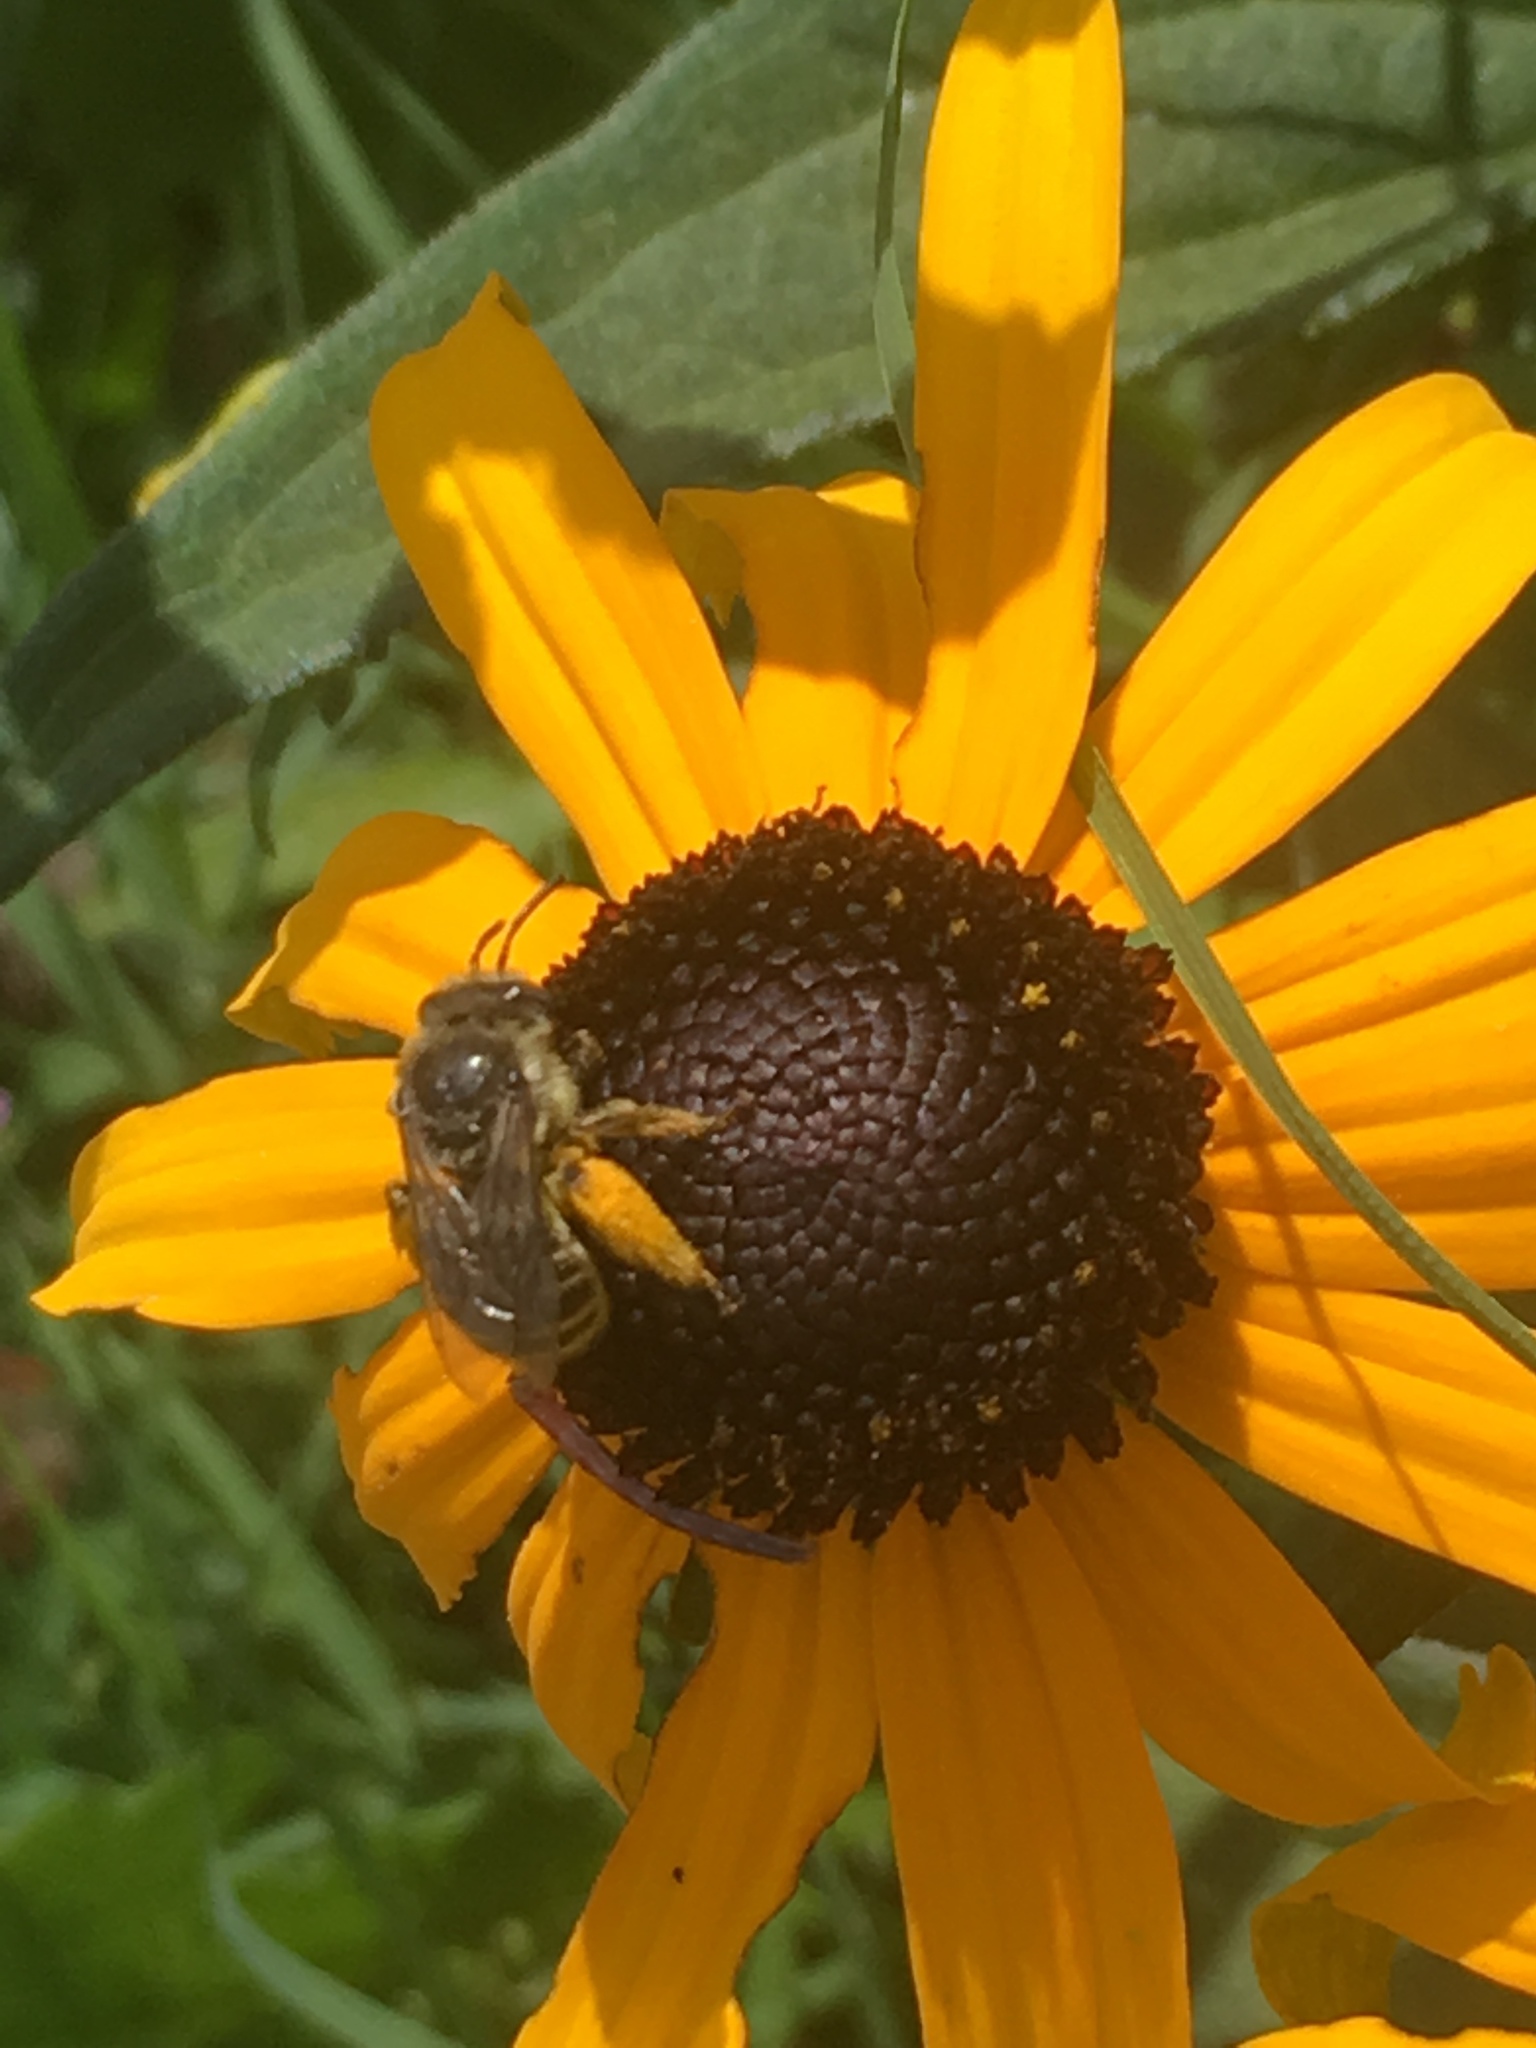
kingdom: Animalia
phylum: Arthropoda
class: Insecta
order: Hymenoptera
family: Apidae
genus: Apis
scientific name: Apis mellifera
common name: Honey bee
